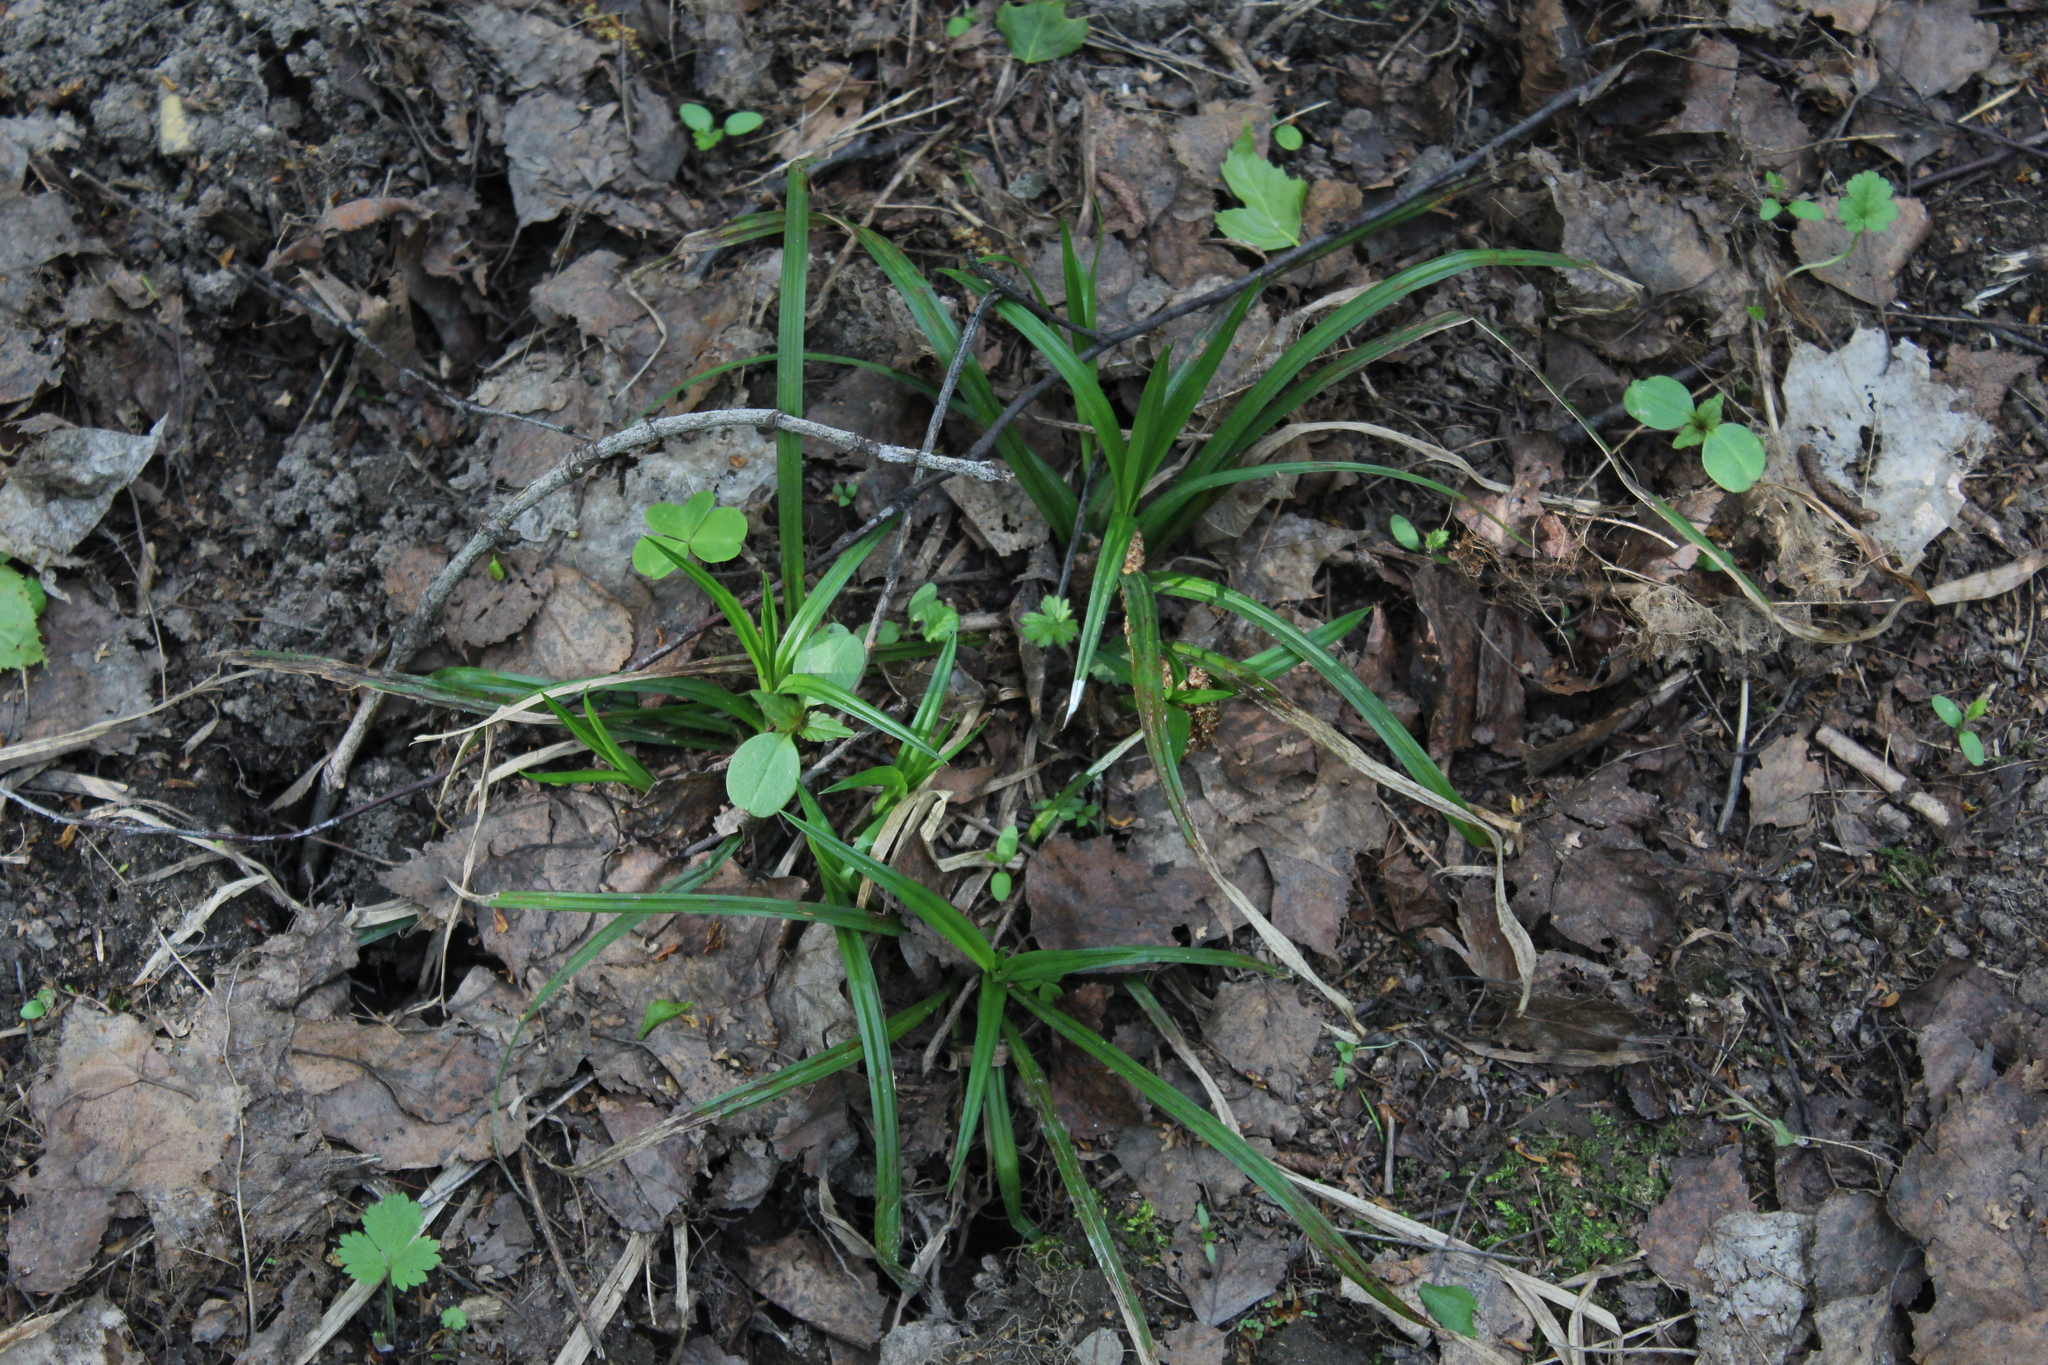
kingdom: Plantae
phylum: Tracheophyta
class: Liliopsida
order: Poales
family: Cyperaceae
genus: Carex
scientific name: Carex sylvatica
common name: Wood-sedge
